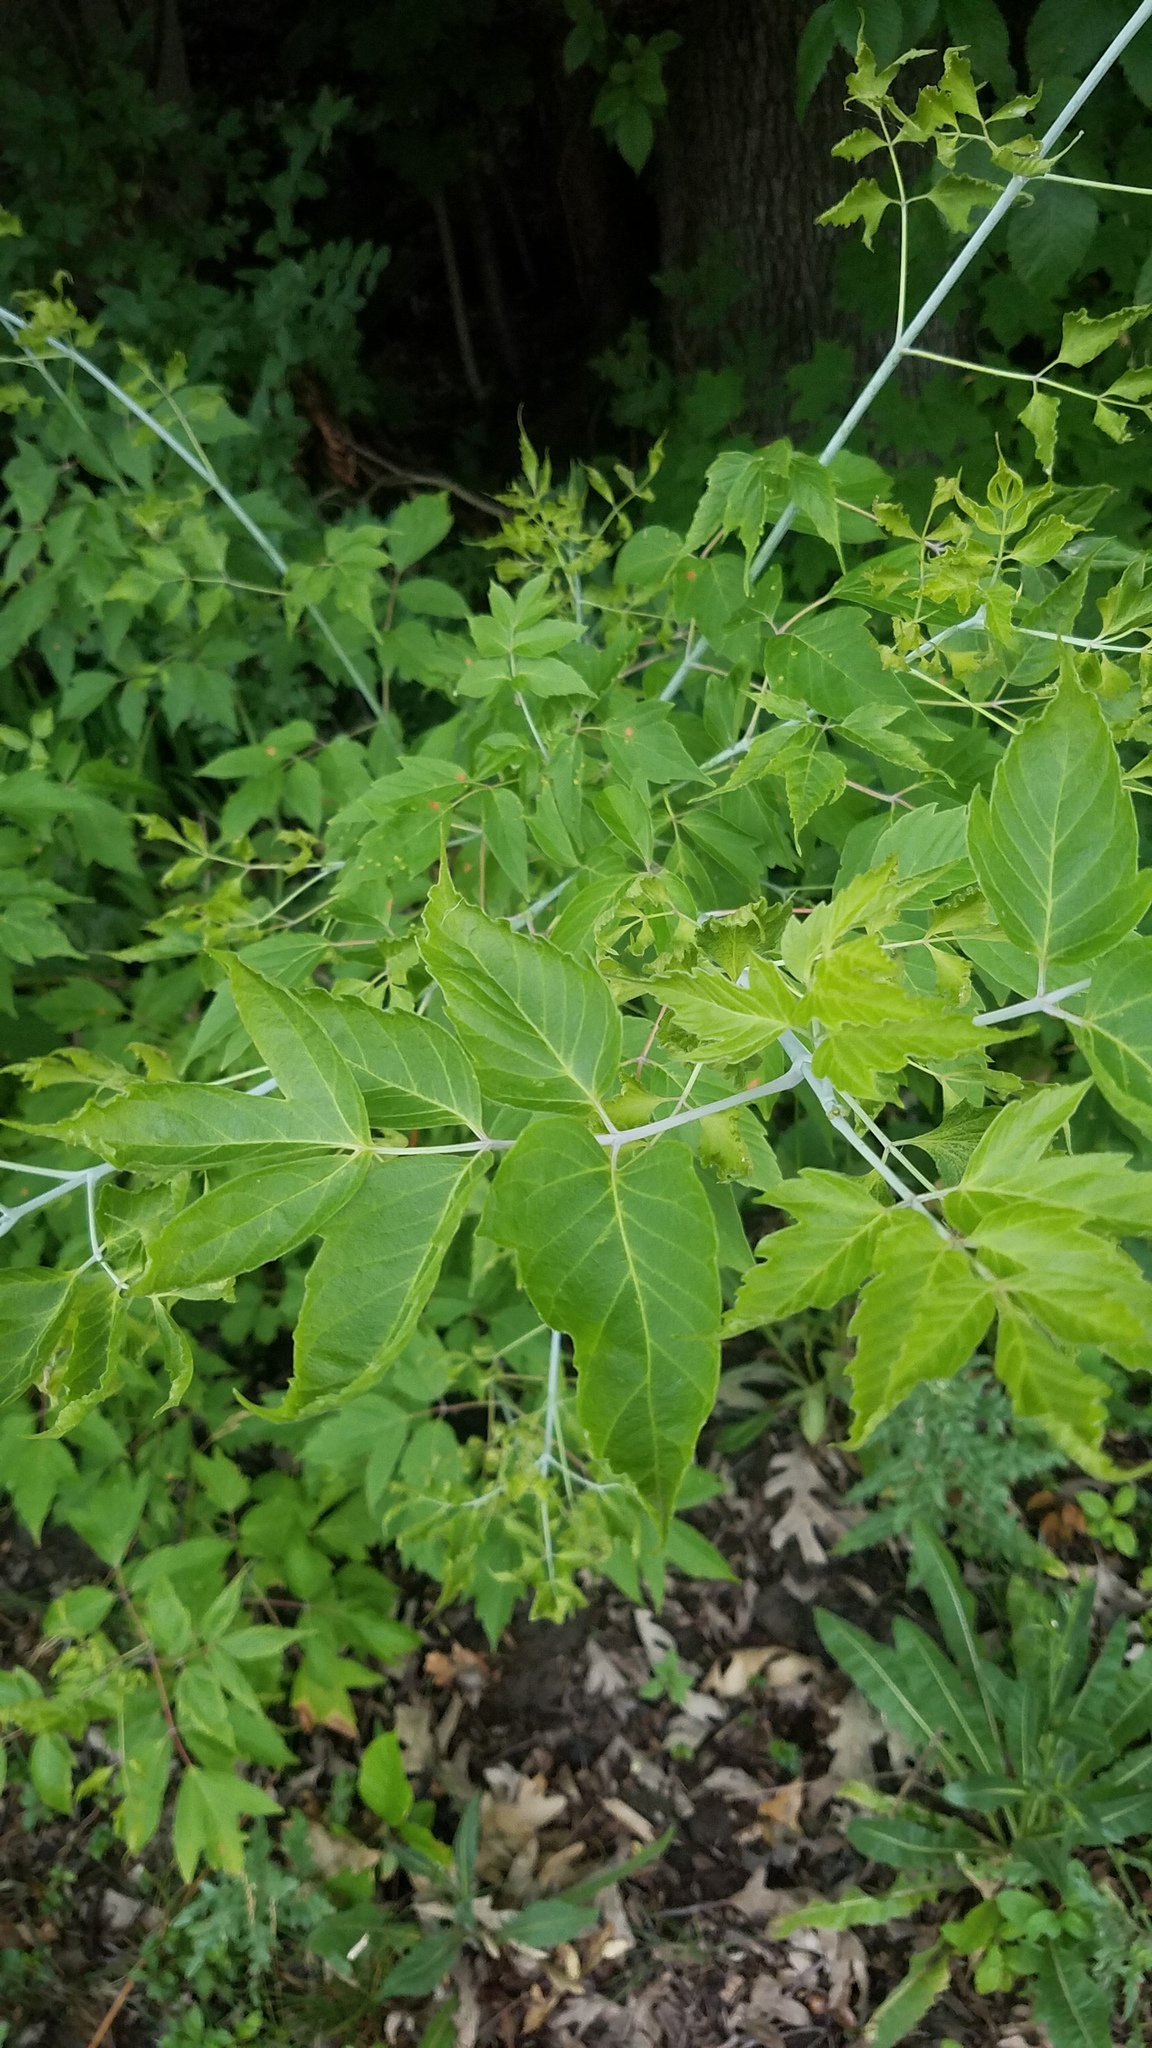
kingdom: Plantae
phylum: Tracheophyta
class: Magnoliopsida
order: Sapindales
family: Sapindaceae
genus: Acer
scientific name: Acer negundo
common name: Ashleaf maple
